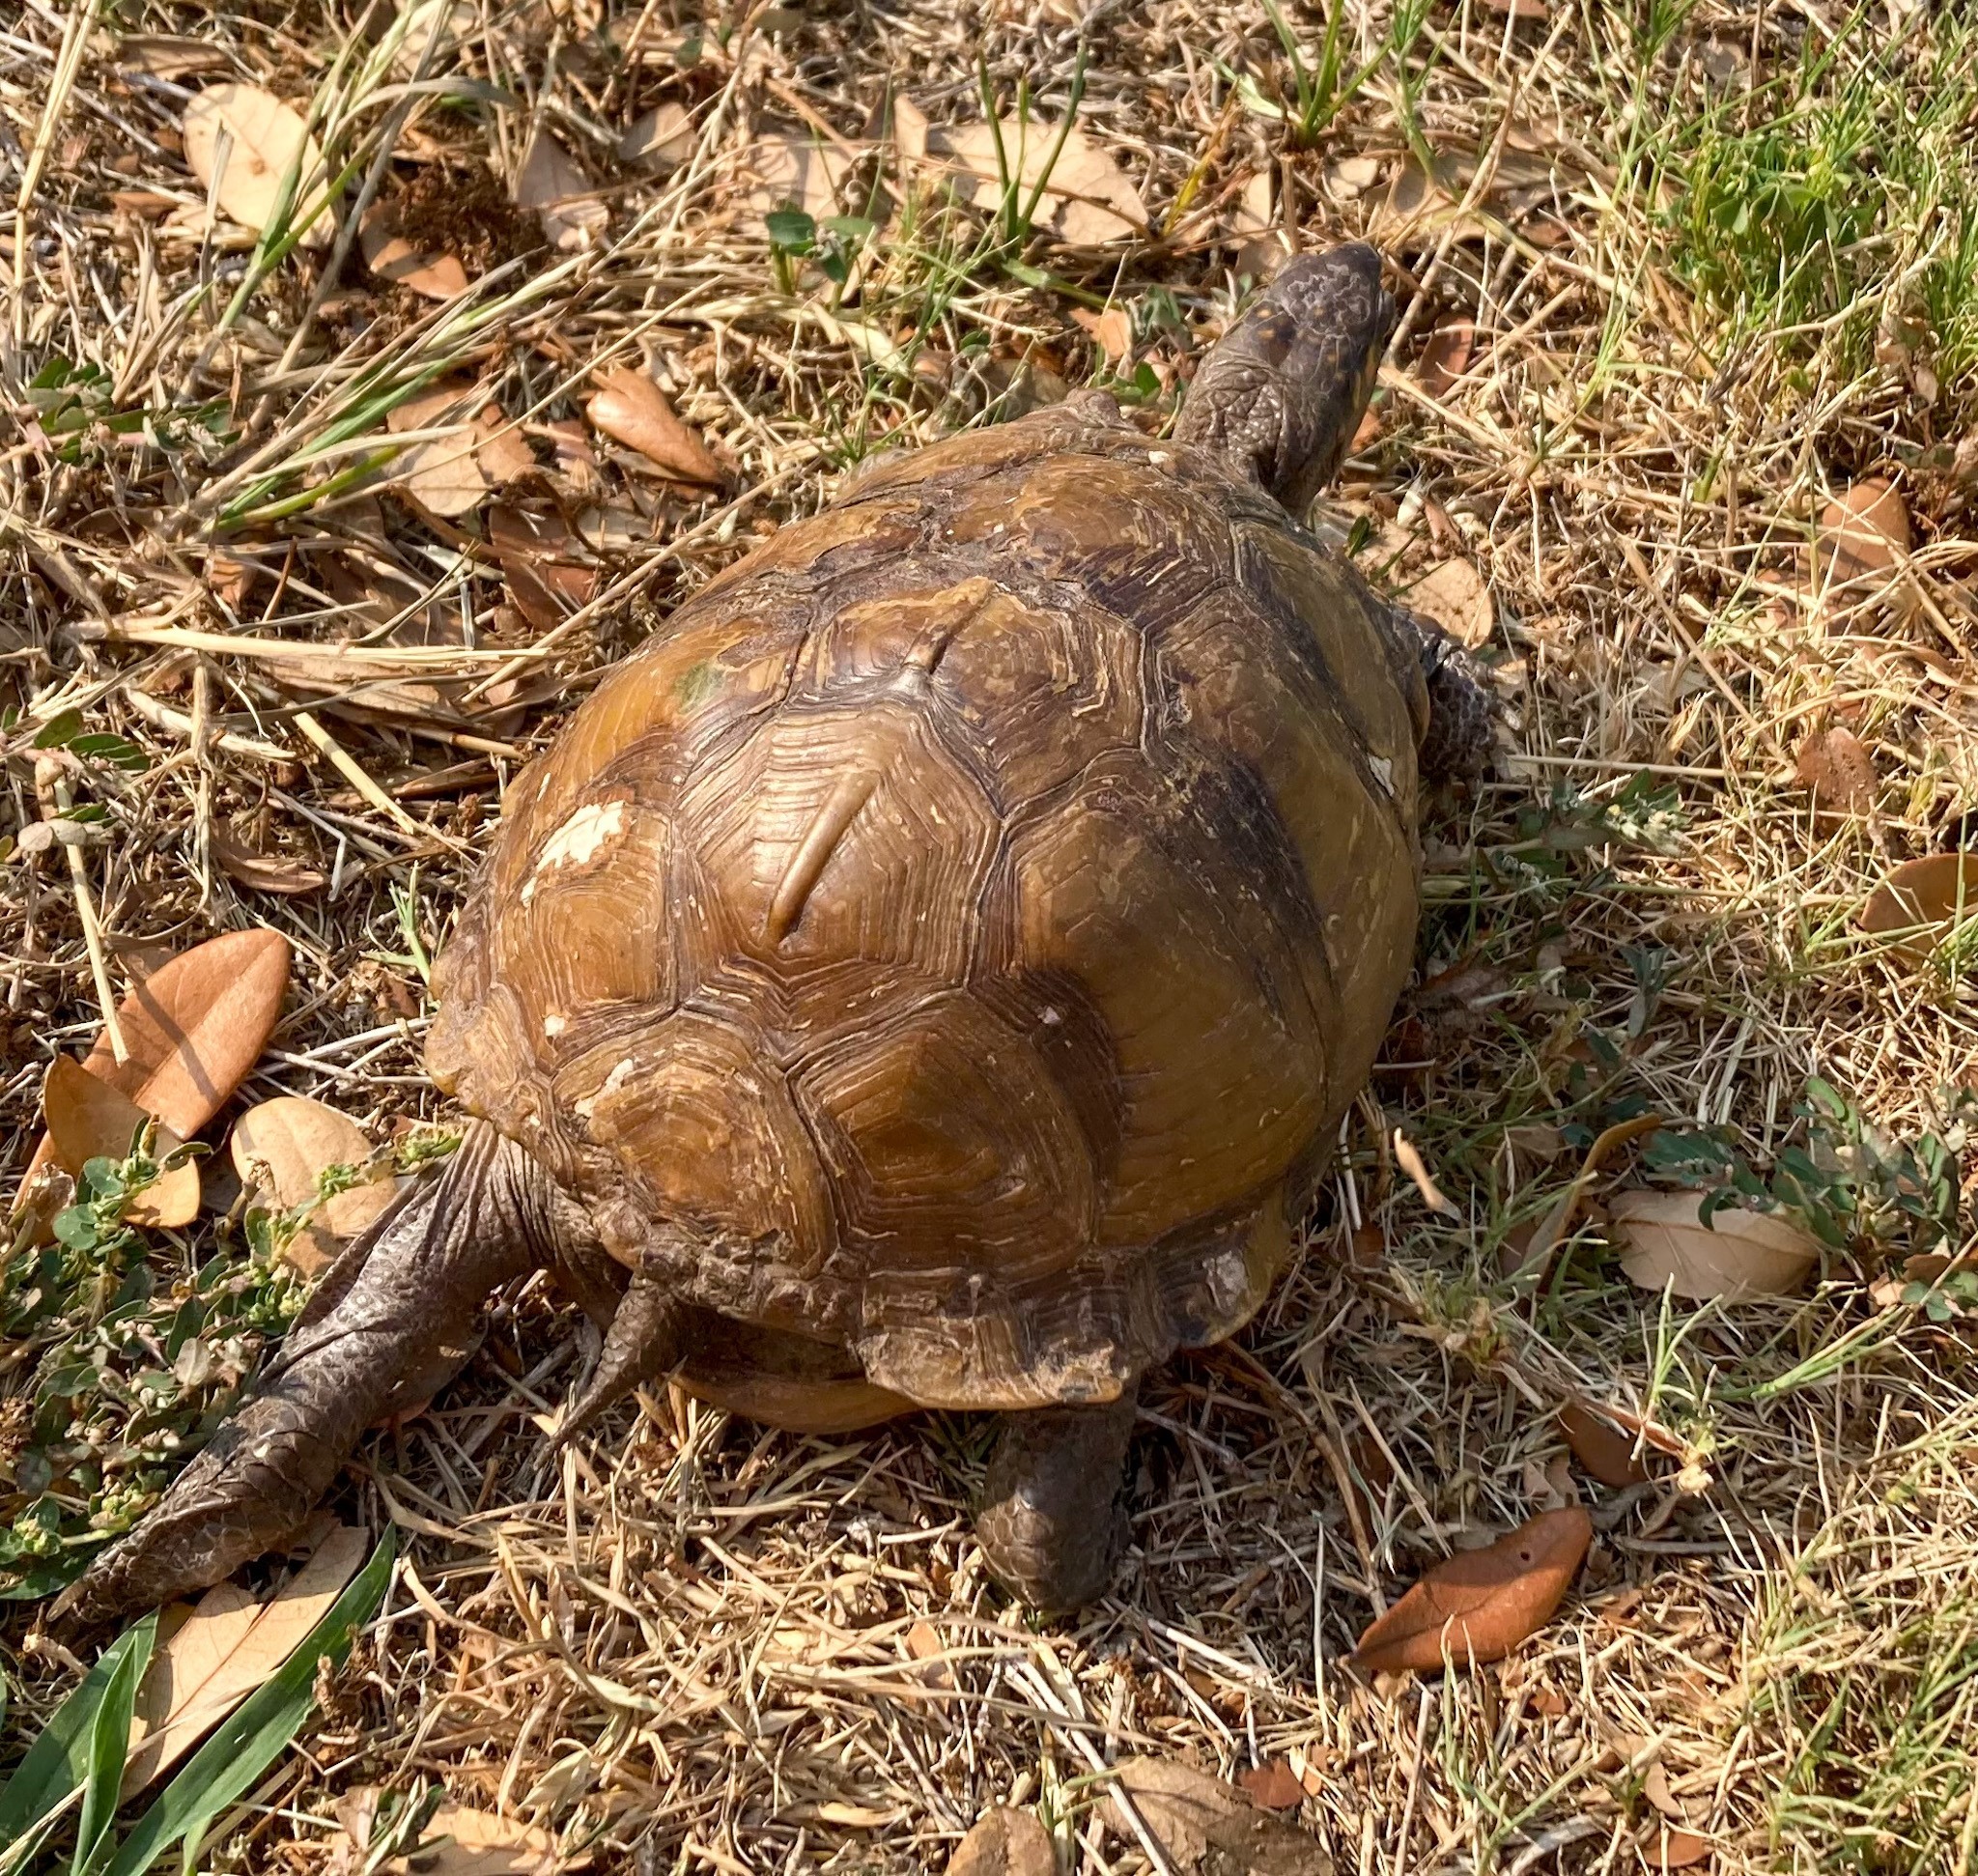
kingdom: Animalia
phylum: Chordata
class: Testudines
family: Emydidae
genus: Terrapene
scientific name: Terrapene carolina
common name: Common box turtle
